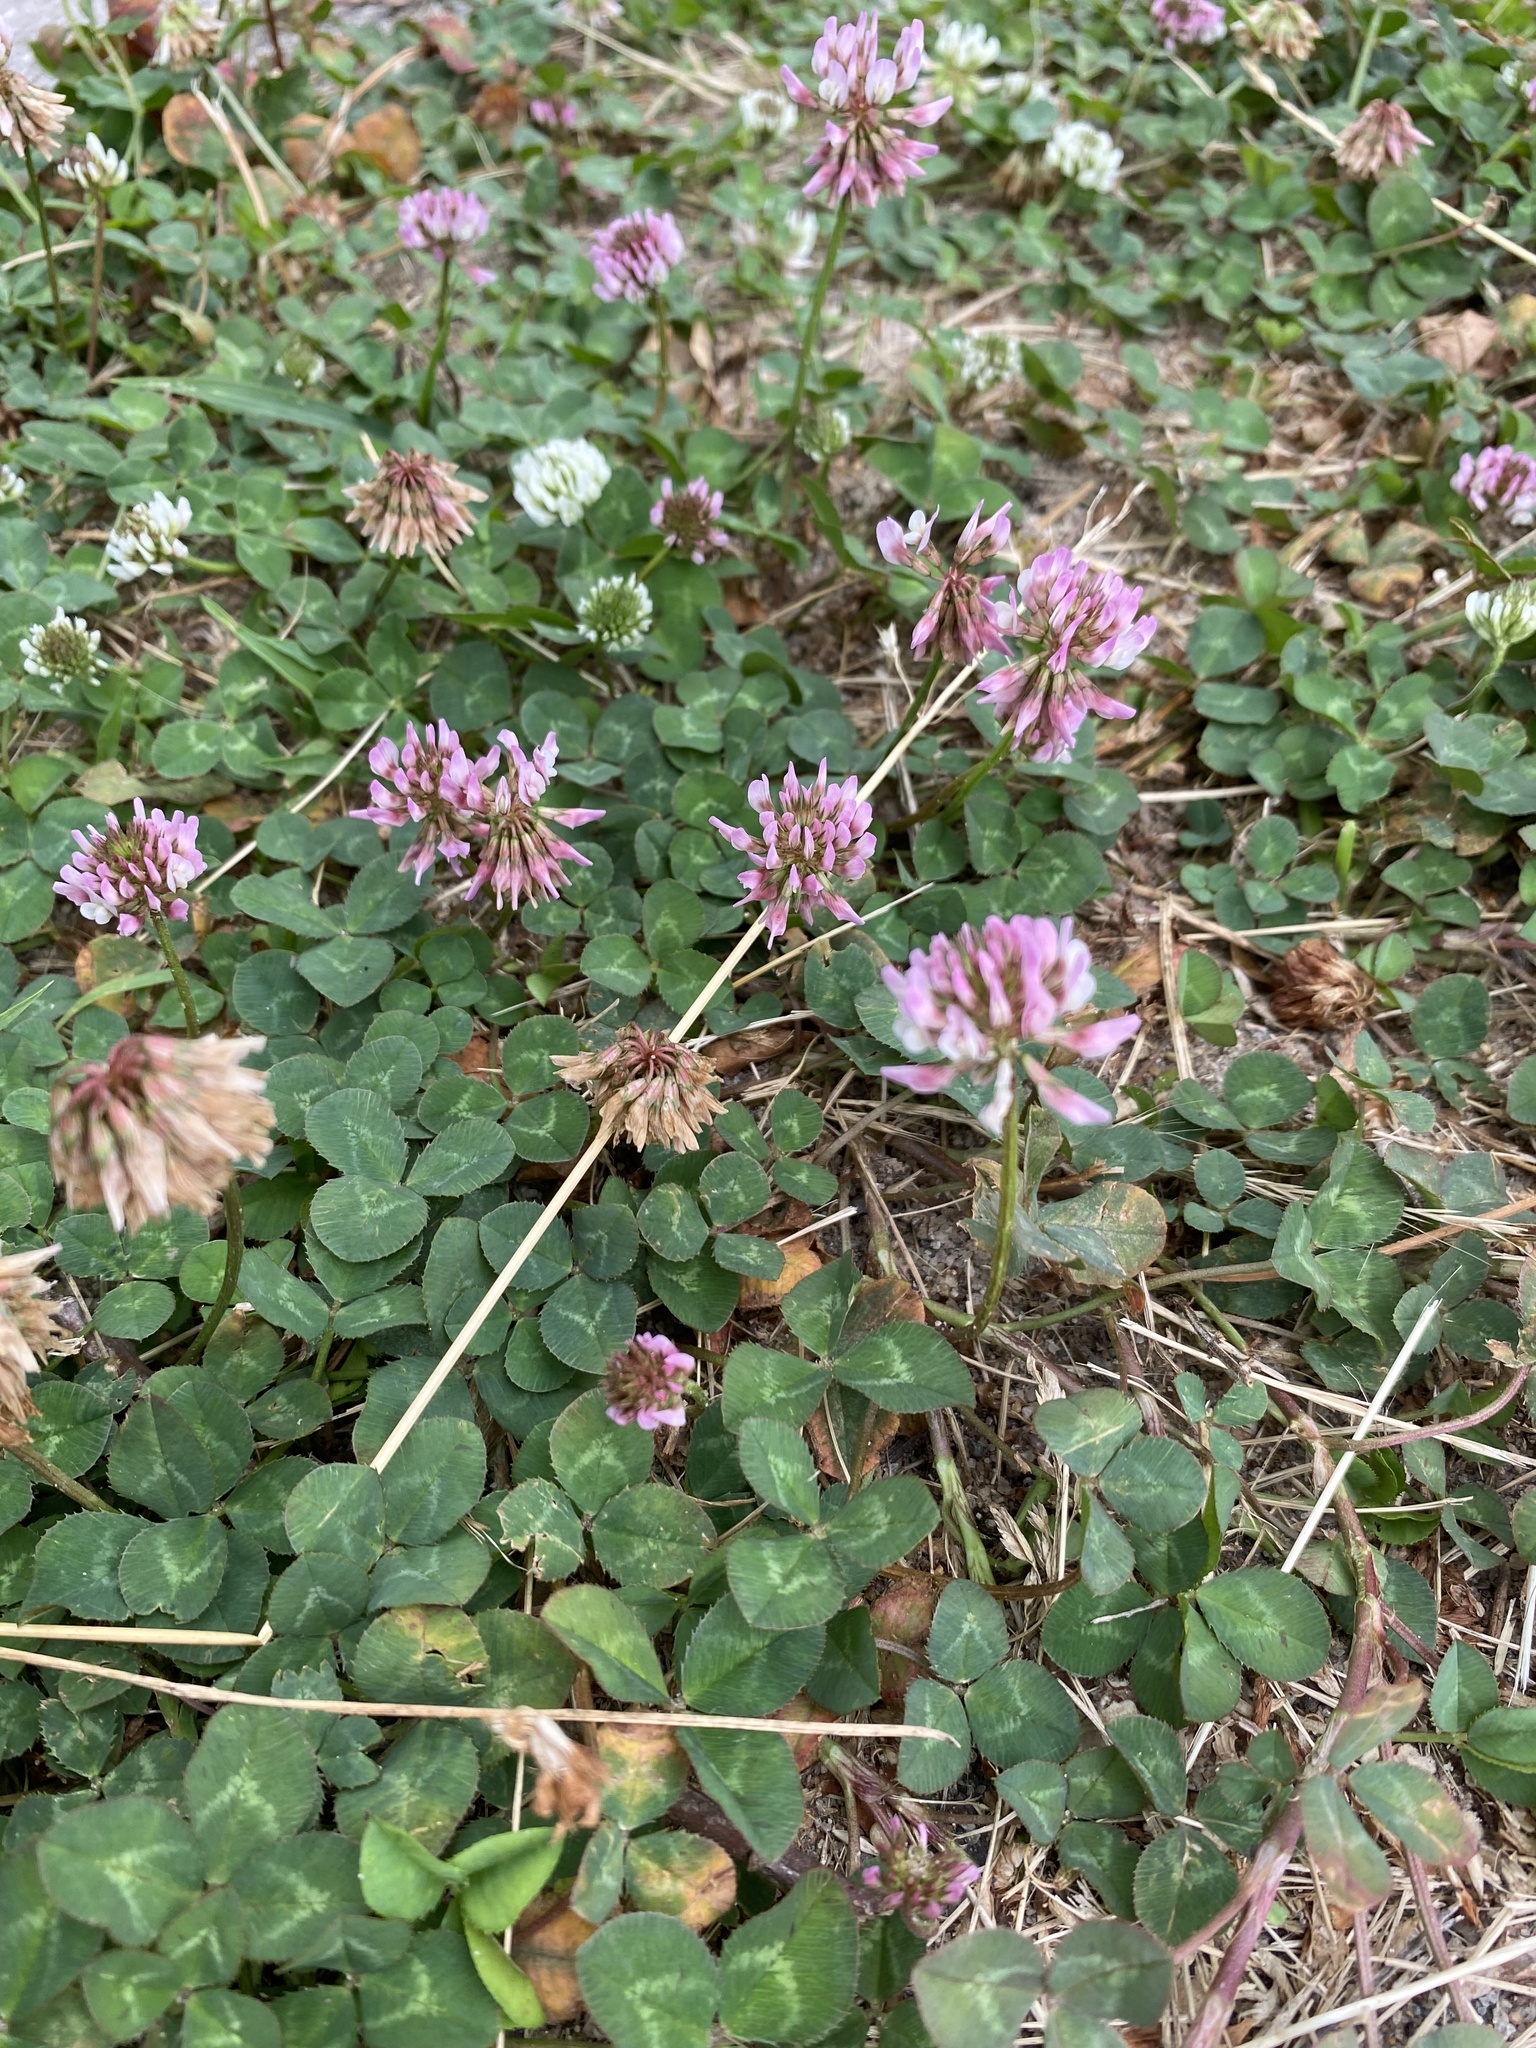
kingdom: Plantae
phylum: Tracheophyta
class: Magnoliopsida
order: Fabales
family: Fabaceae
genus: Trifolium
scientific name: Trifolium repens
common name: White clover
